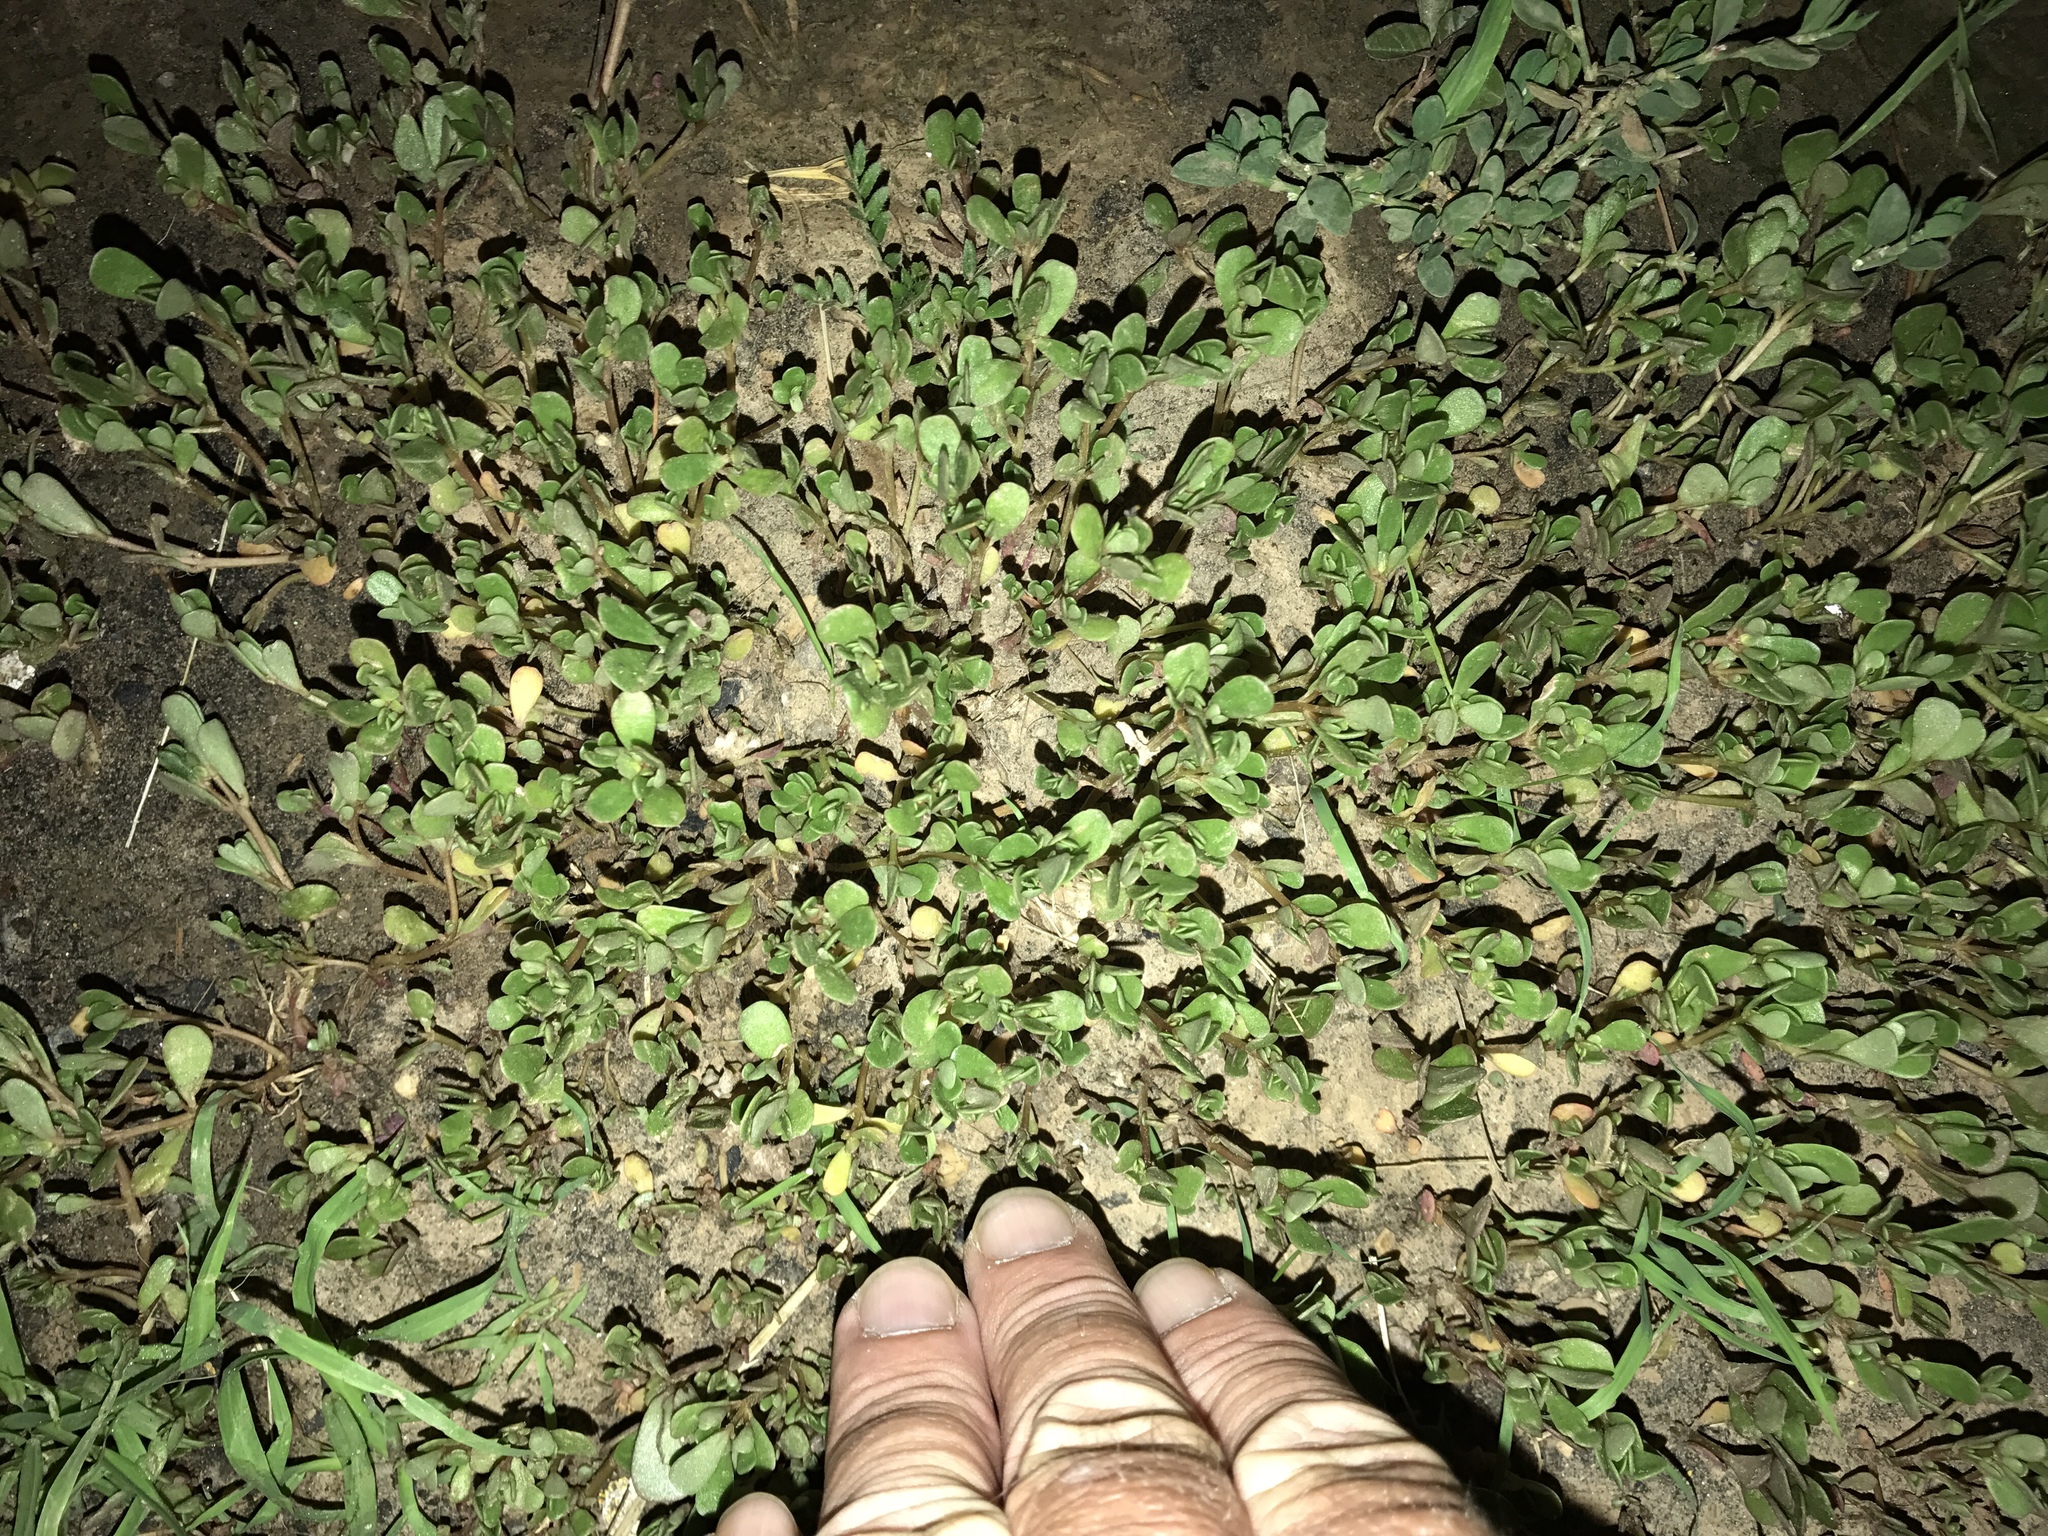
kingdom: Plantae
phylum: Tracheophyta
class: Magnoliopsida
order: Caryophyllales
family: Portulacaceae
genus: Portulaca
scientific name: Portulaca oleracea
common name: Common purslane
